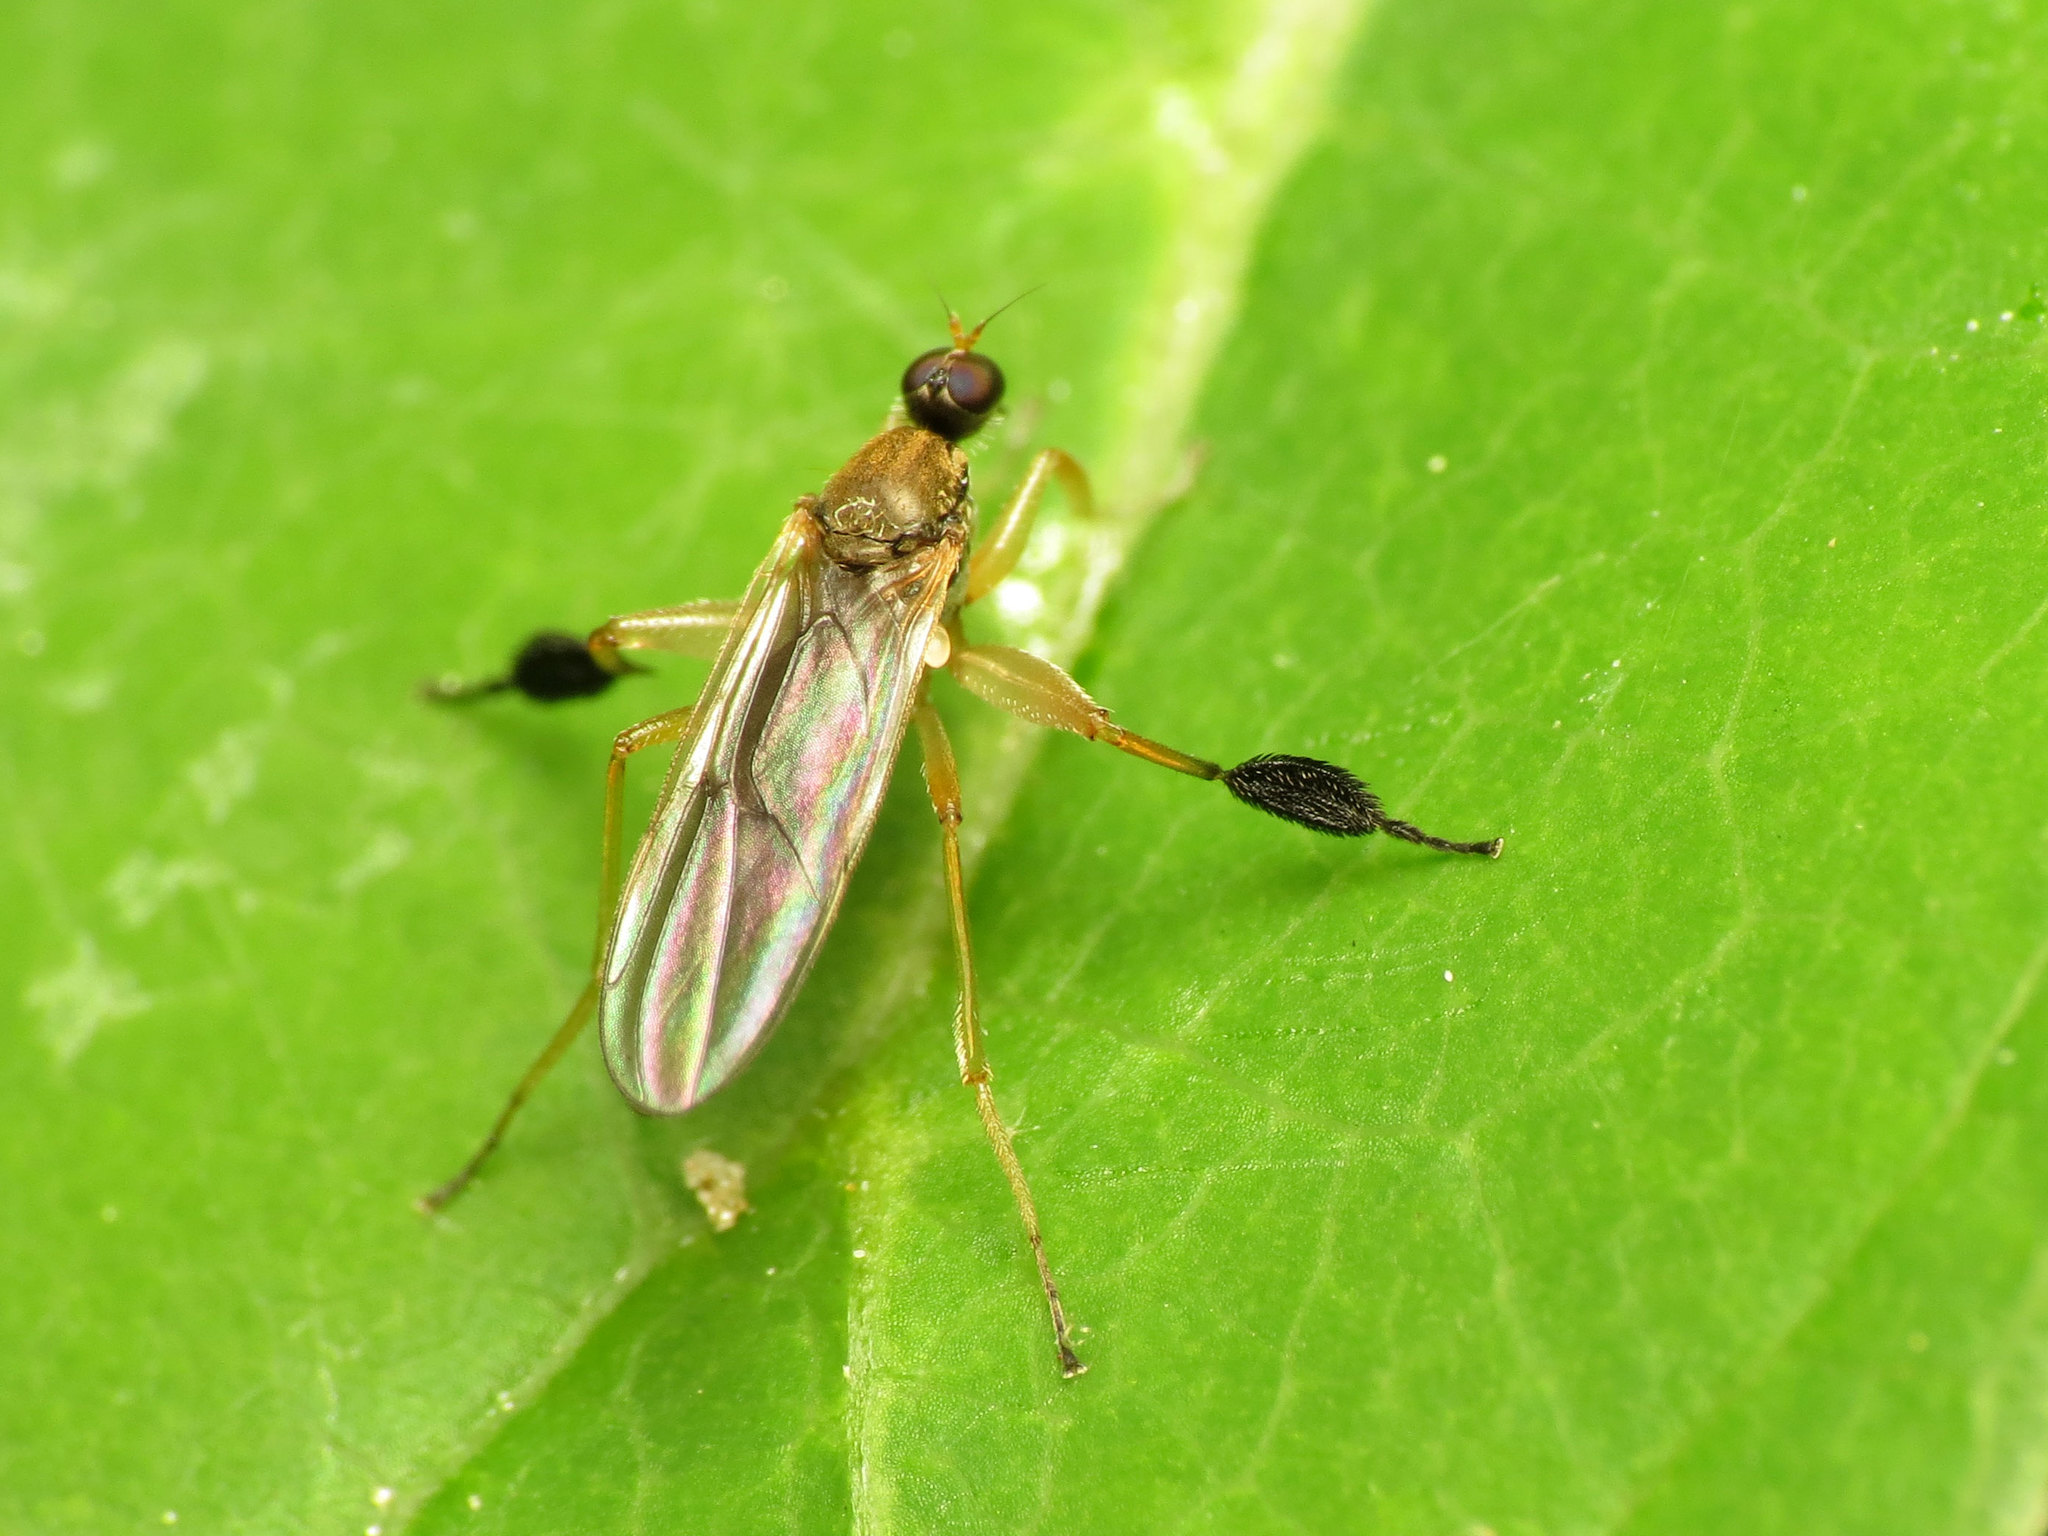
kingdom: Animalia
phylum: Arthropoda
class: Insecta
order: Diptera
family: Hybotidae
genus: Platypalpus
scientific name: Platypalpus discifer
